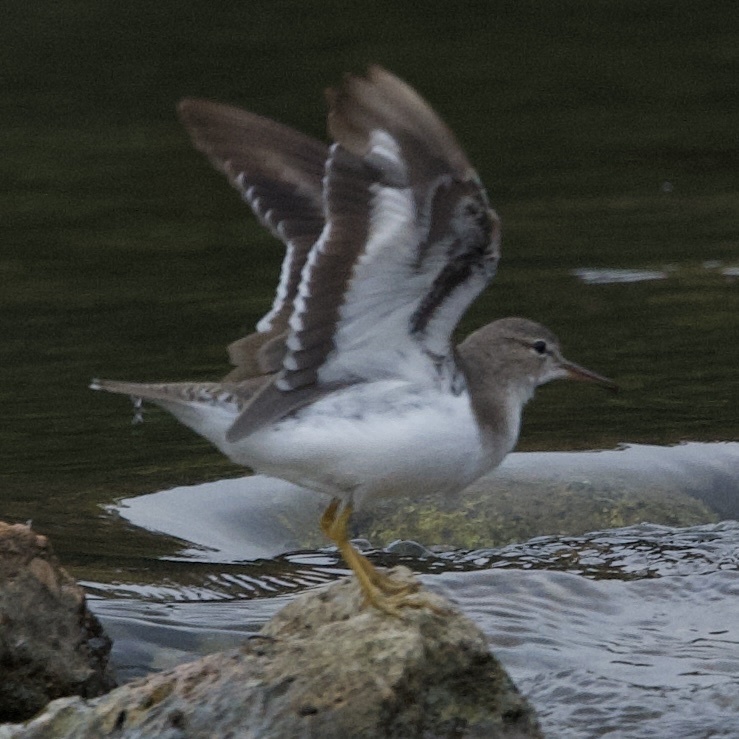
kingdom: Animalia
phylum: Chordata
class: Aves
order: Charadriiformes
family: Scolopacidae
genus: Actitis
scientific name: Actitis macularius
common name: Spotted sandpiper
